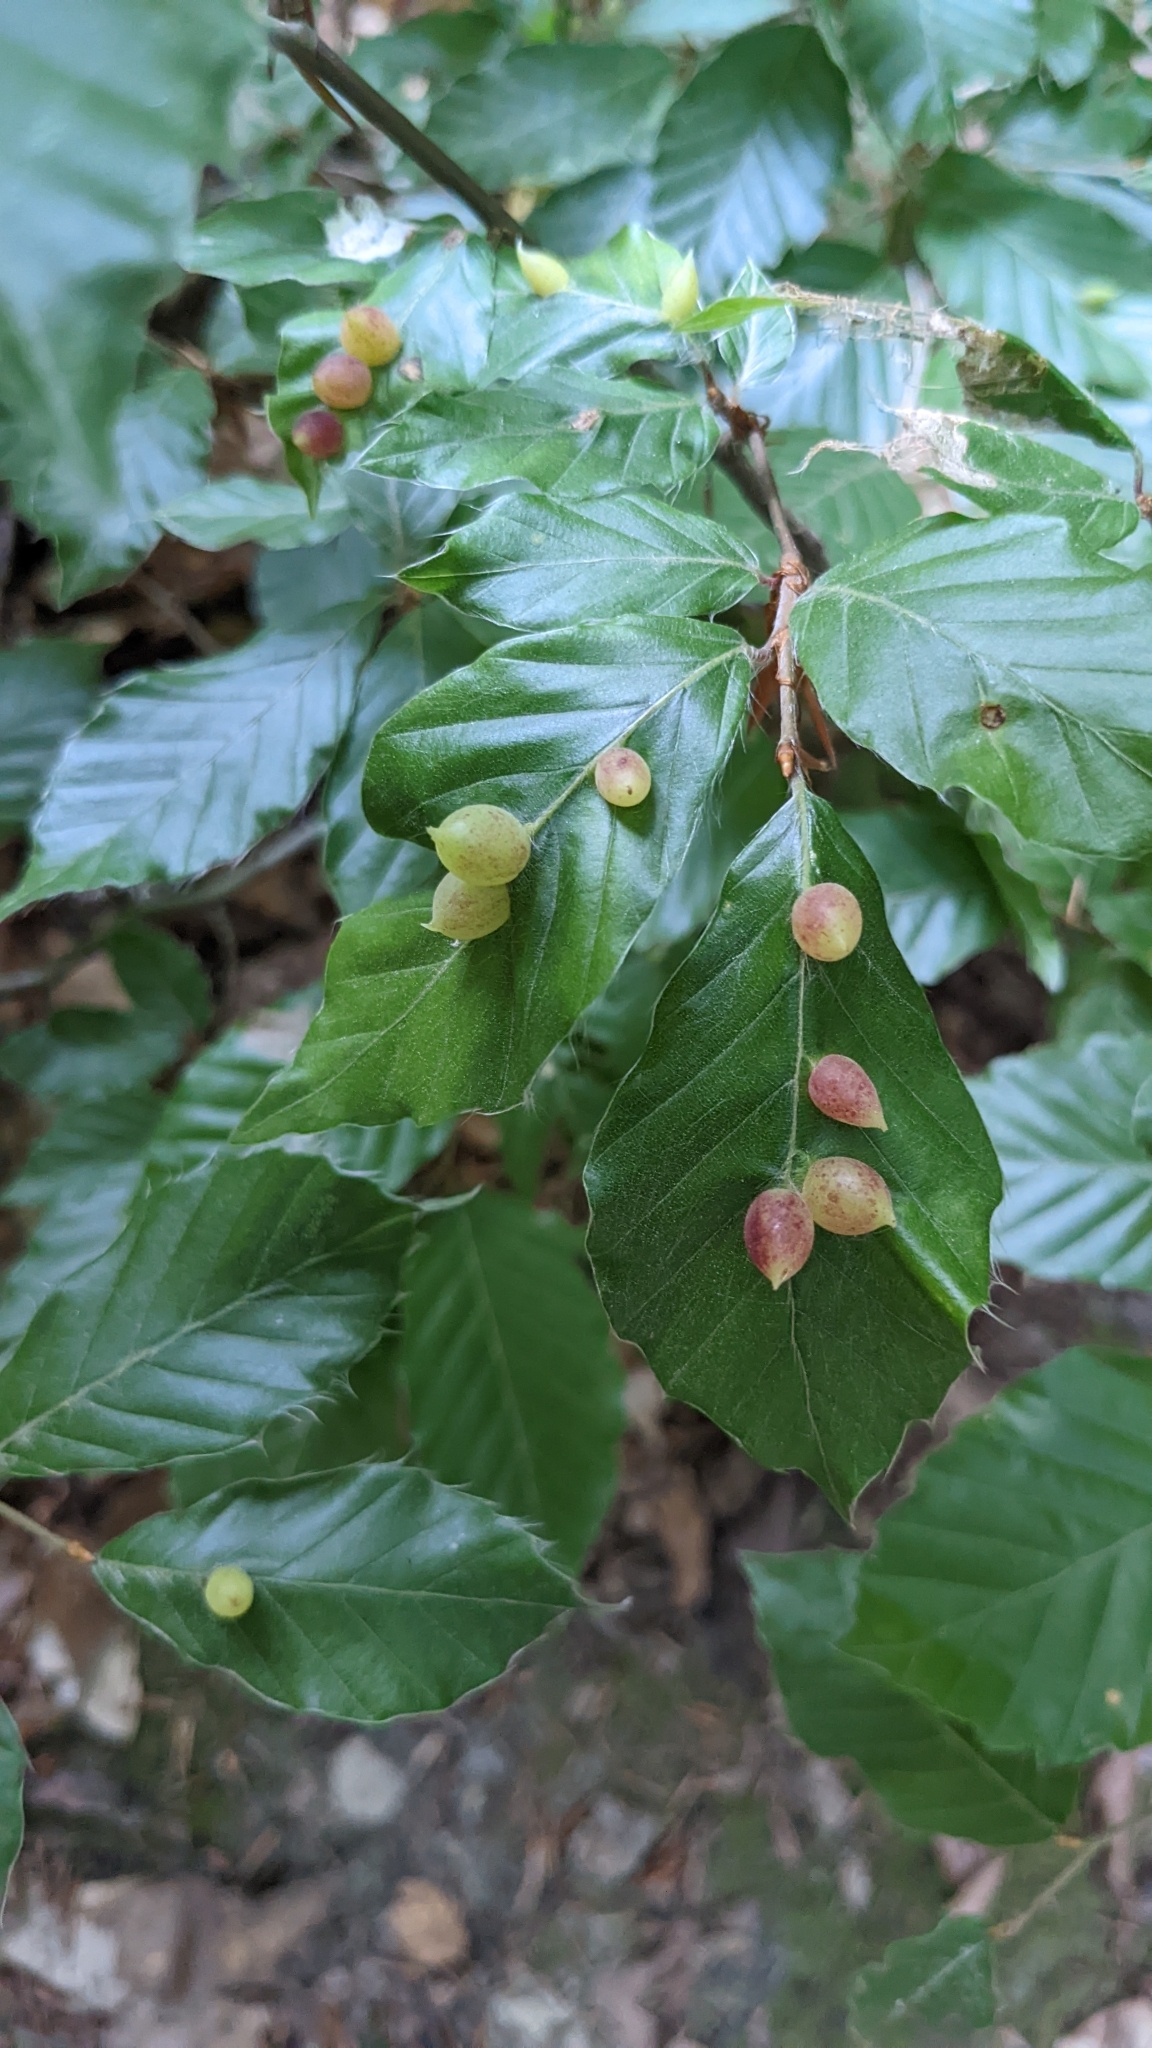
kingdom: Animalia
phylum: Arthropoda
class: Insecta
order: Diptera
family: Cecidomyiidae
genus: Mikiola
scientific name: Mikiola fagi
